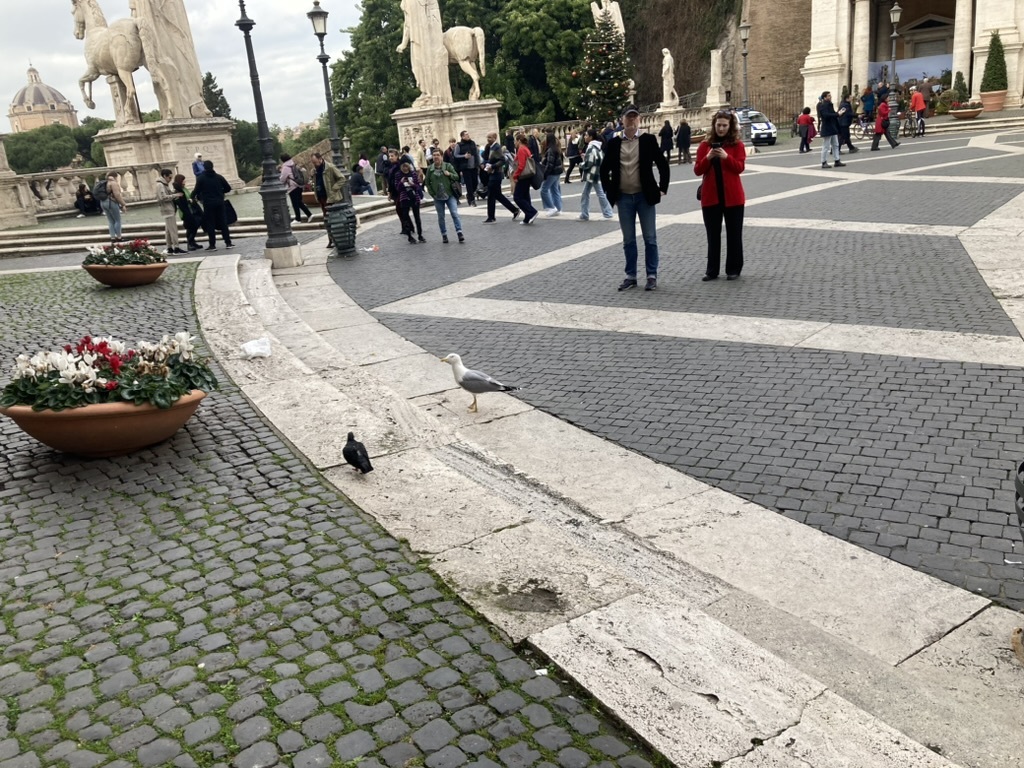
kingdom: Animalia
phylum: Chordata
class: Aves
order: Charadriiformes
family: Laridae
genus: Larus
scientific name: Larus michahellis
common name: Yellow-legged gull
